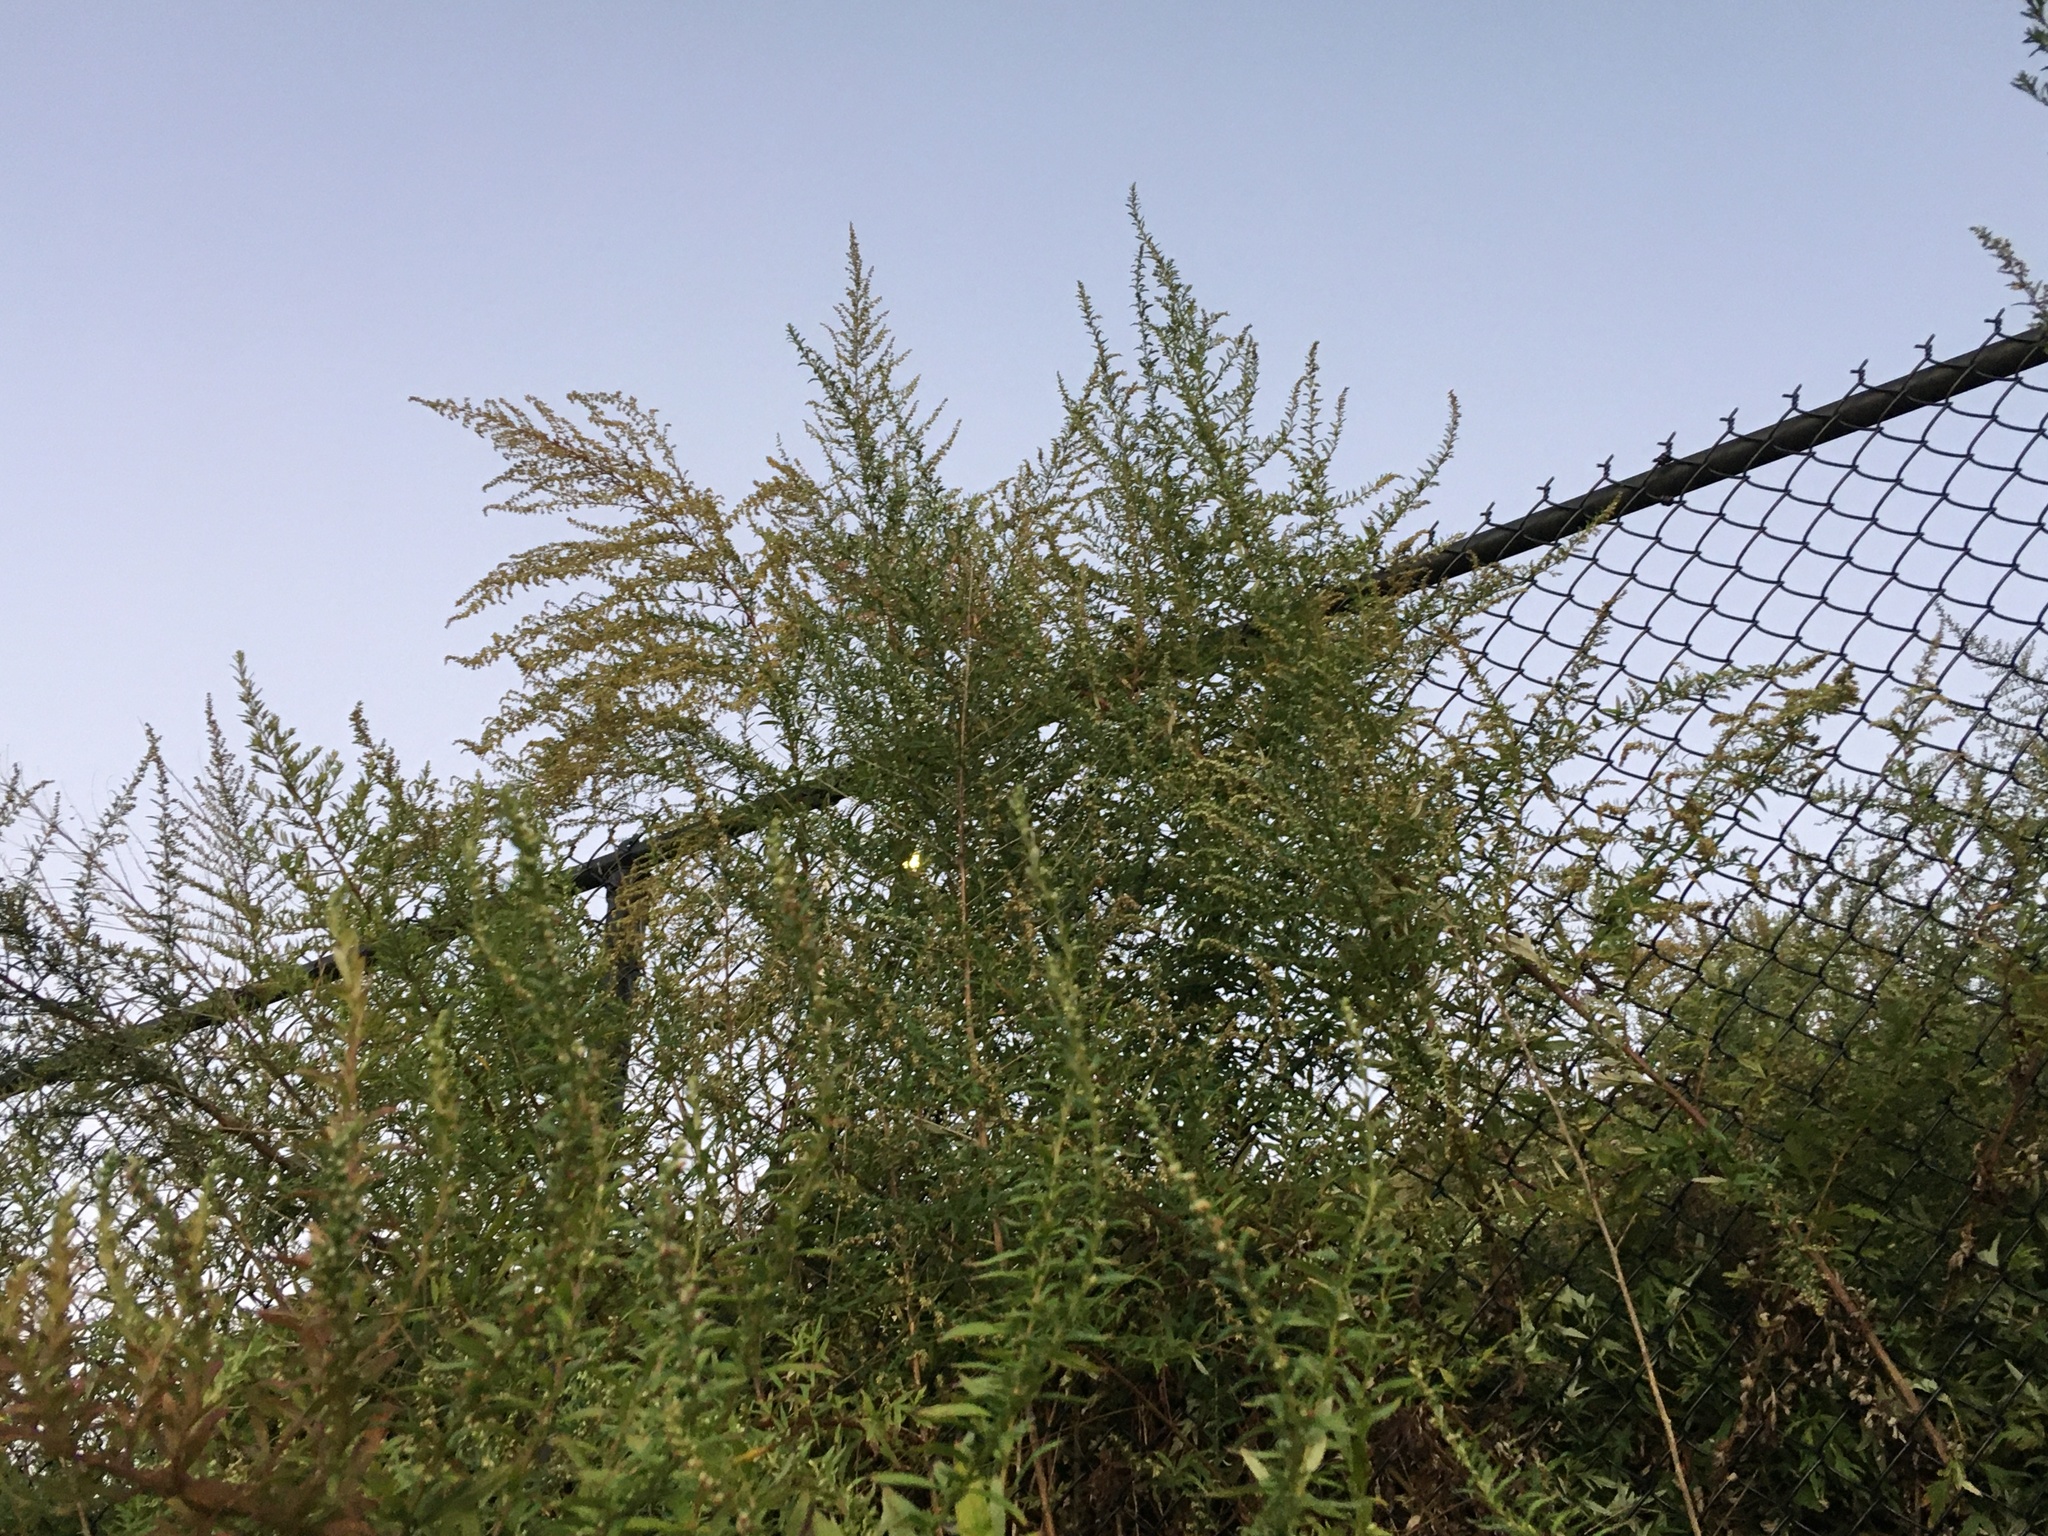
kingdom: Plantae
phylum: Tracheophyta
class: Magnoliopsida
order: Asterales
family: Asteraceae
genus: Artemisia
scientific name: Artemisia vulgaris
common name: Mugwort
